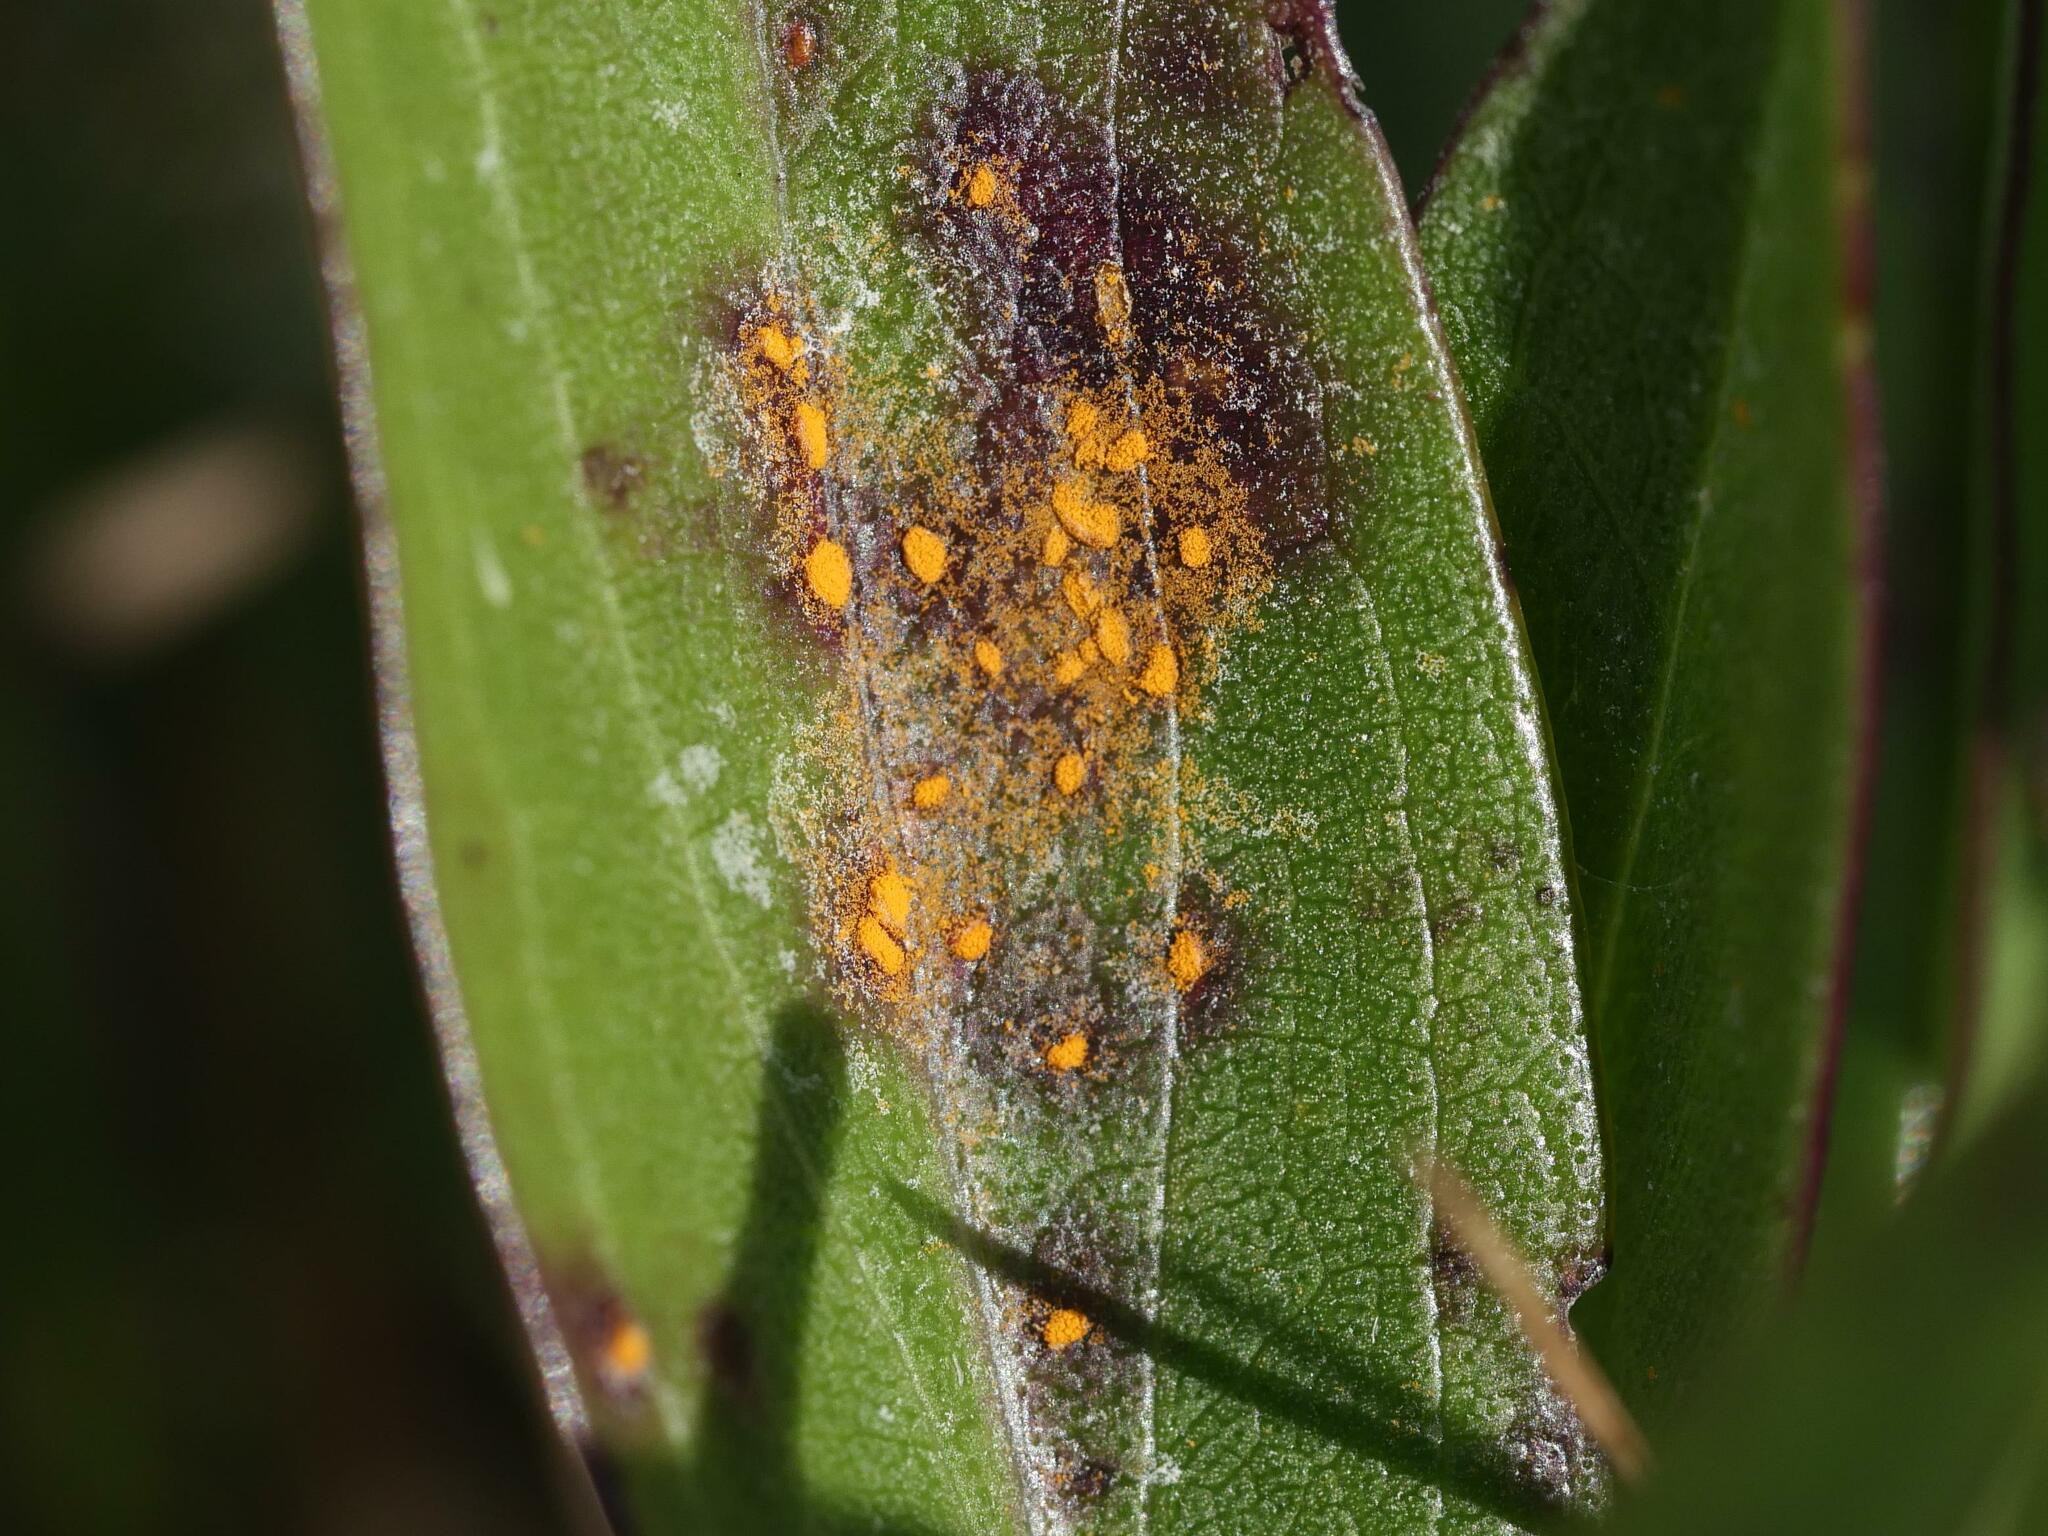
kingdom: Fungi
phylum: Basidiomycota
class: Pucciniomycetes
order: Pucciniales
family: Coleosporiaceae
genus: Coleosporium
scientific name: Coleosporium asterum
